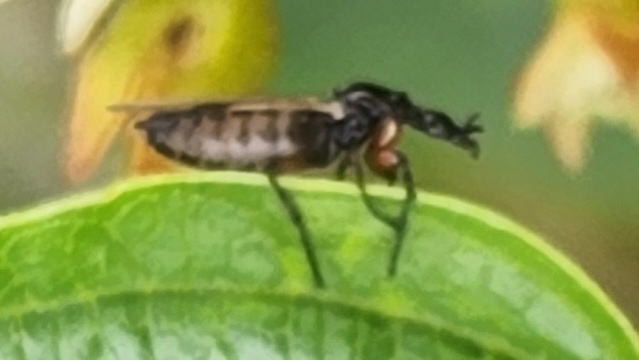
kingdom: Animalia
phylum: Arthropoda
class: Insecta
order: Diptera
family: Bibionidae
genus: Dilophus
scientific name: Dilophus
